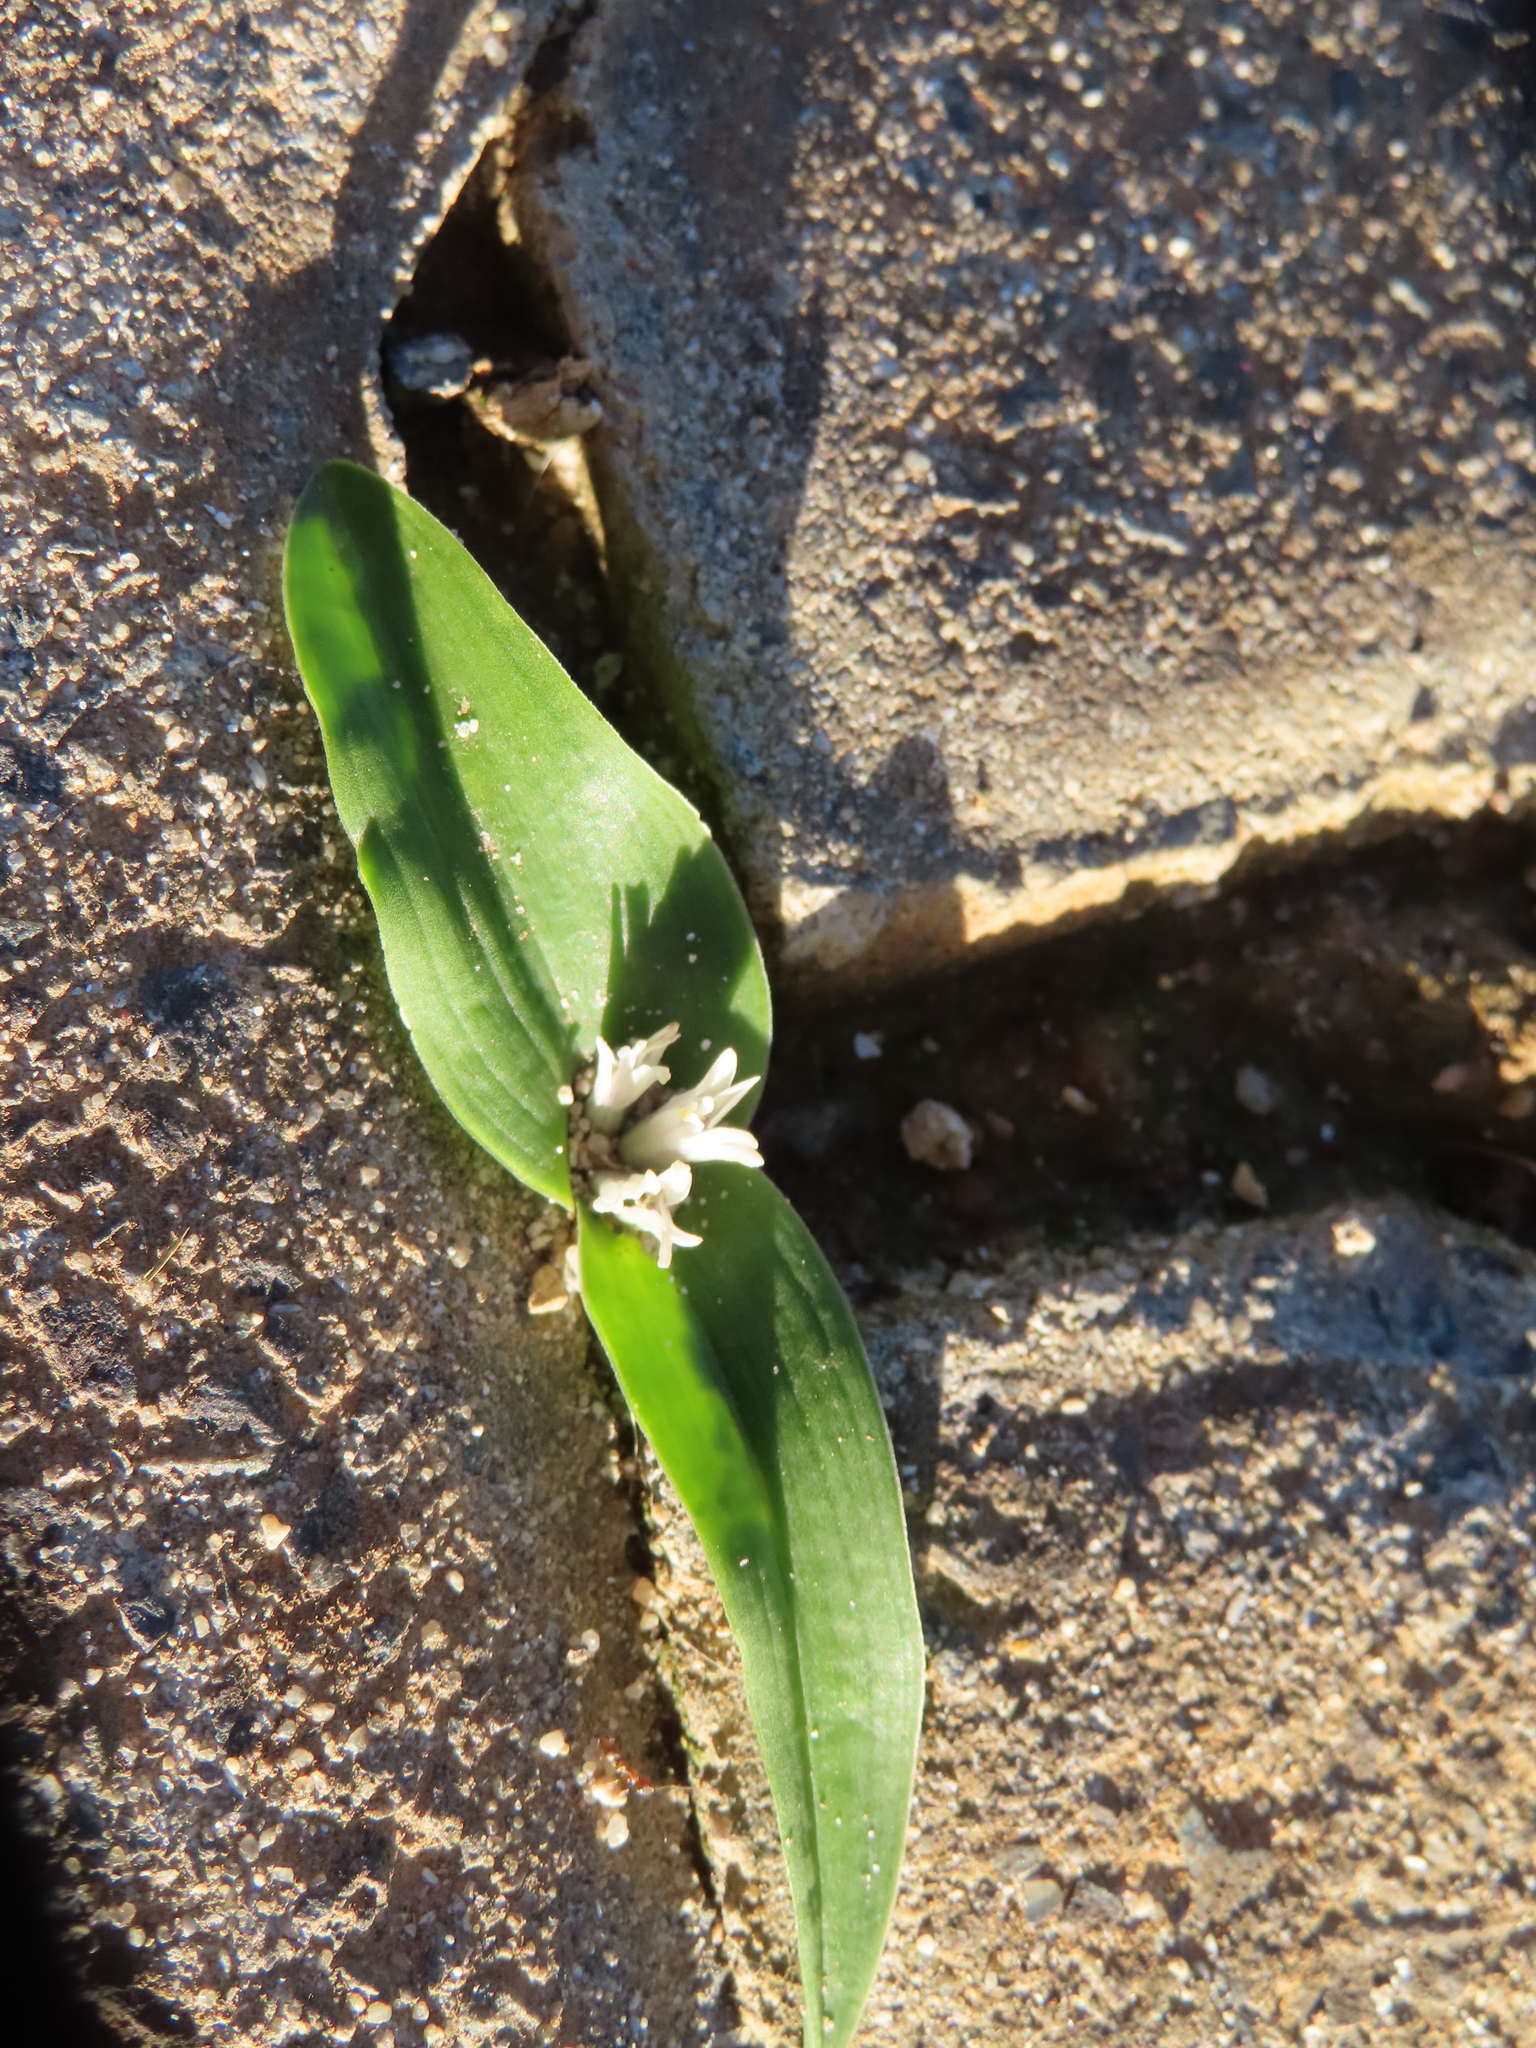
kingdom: Plantae
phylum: Tracheophyta
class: Liliopsida
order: Asparagales
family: Asparagaceae
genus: Lachenalia
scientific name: Lachenalia ensifolia
